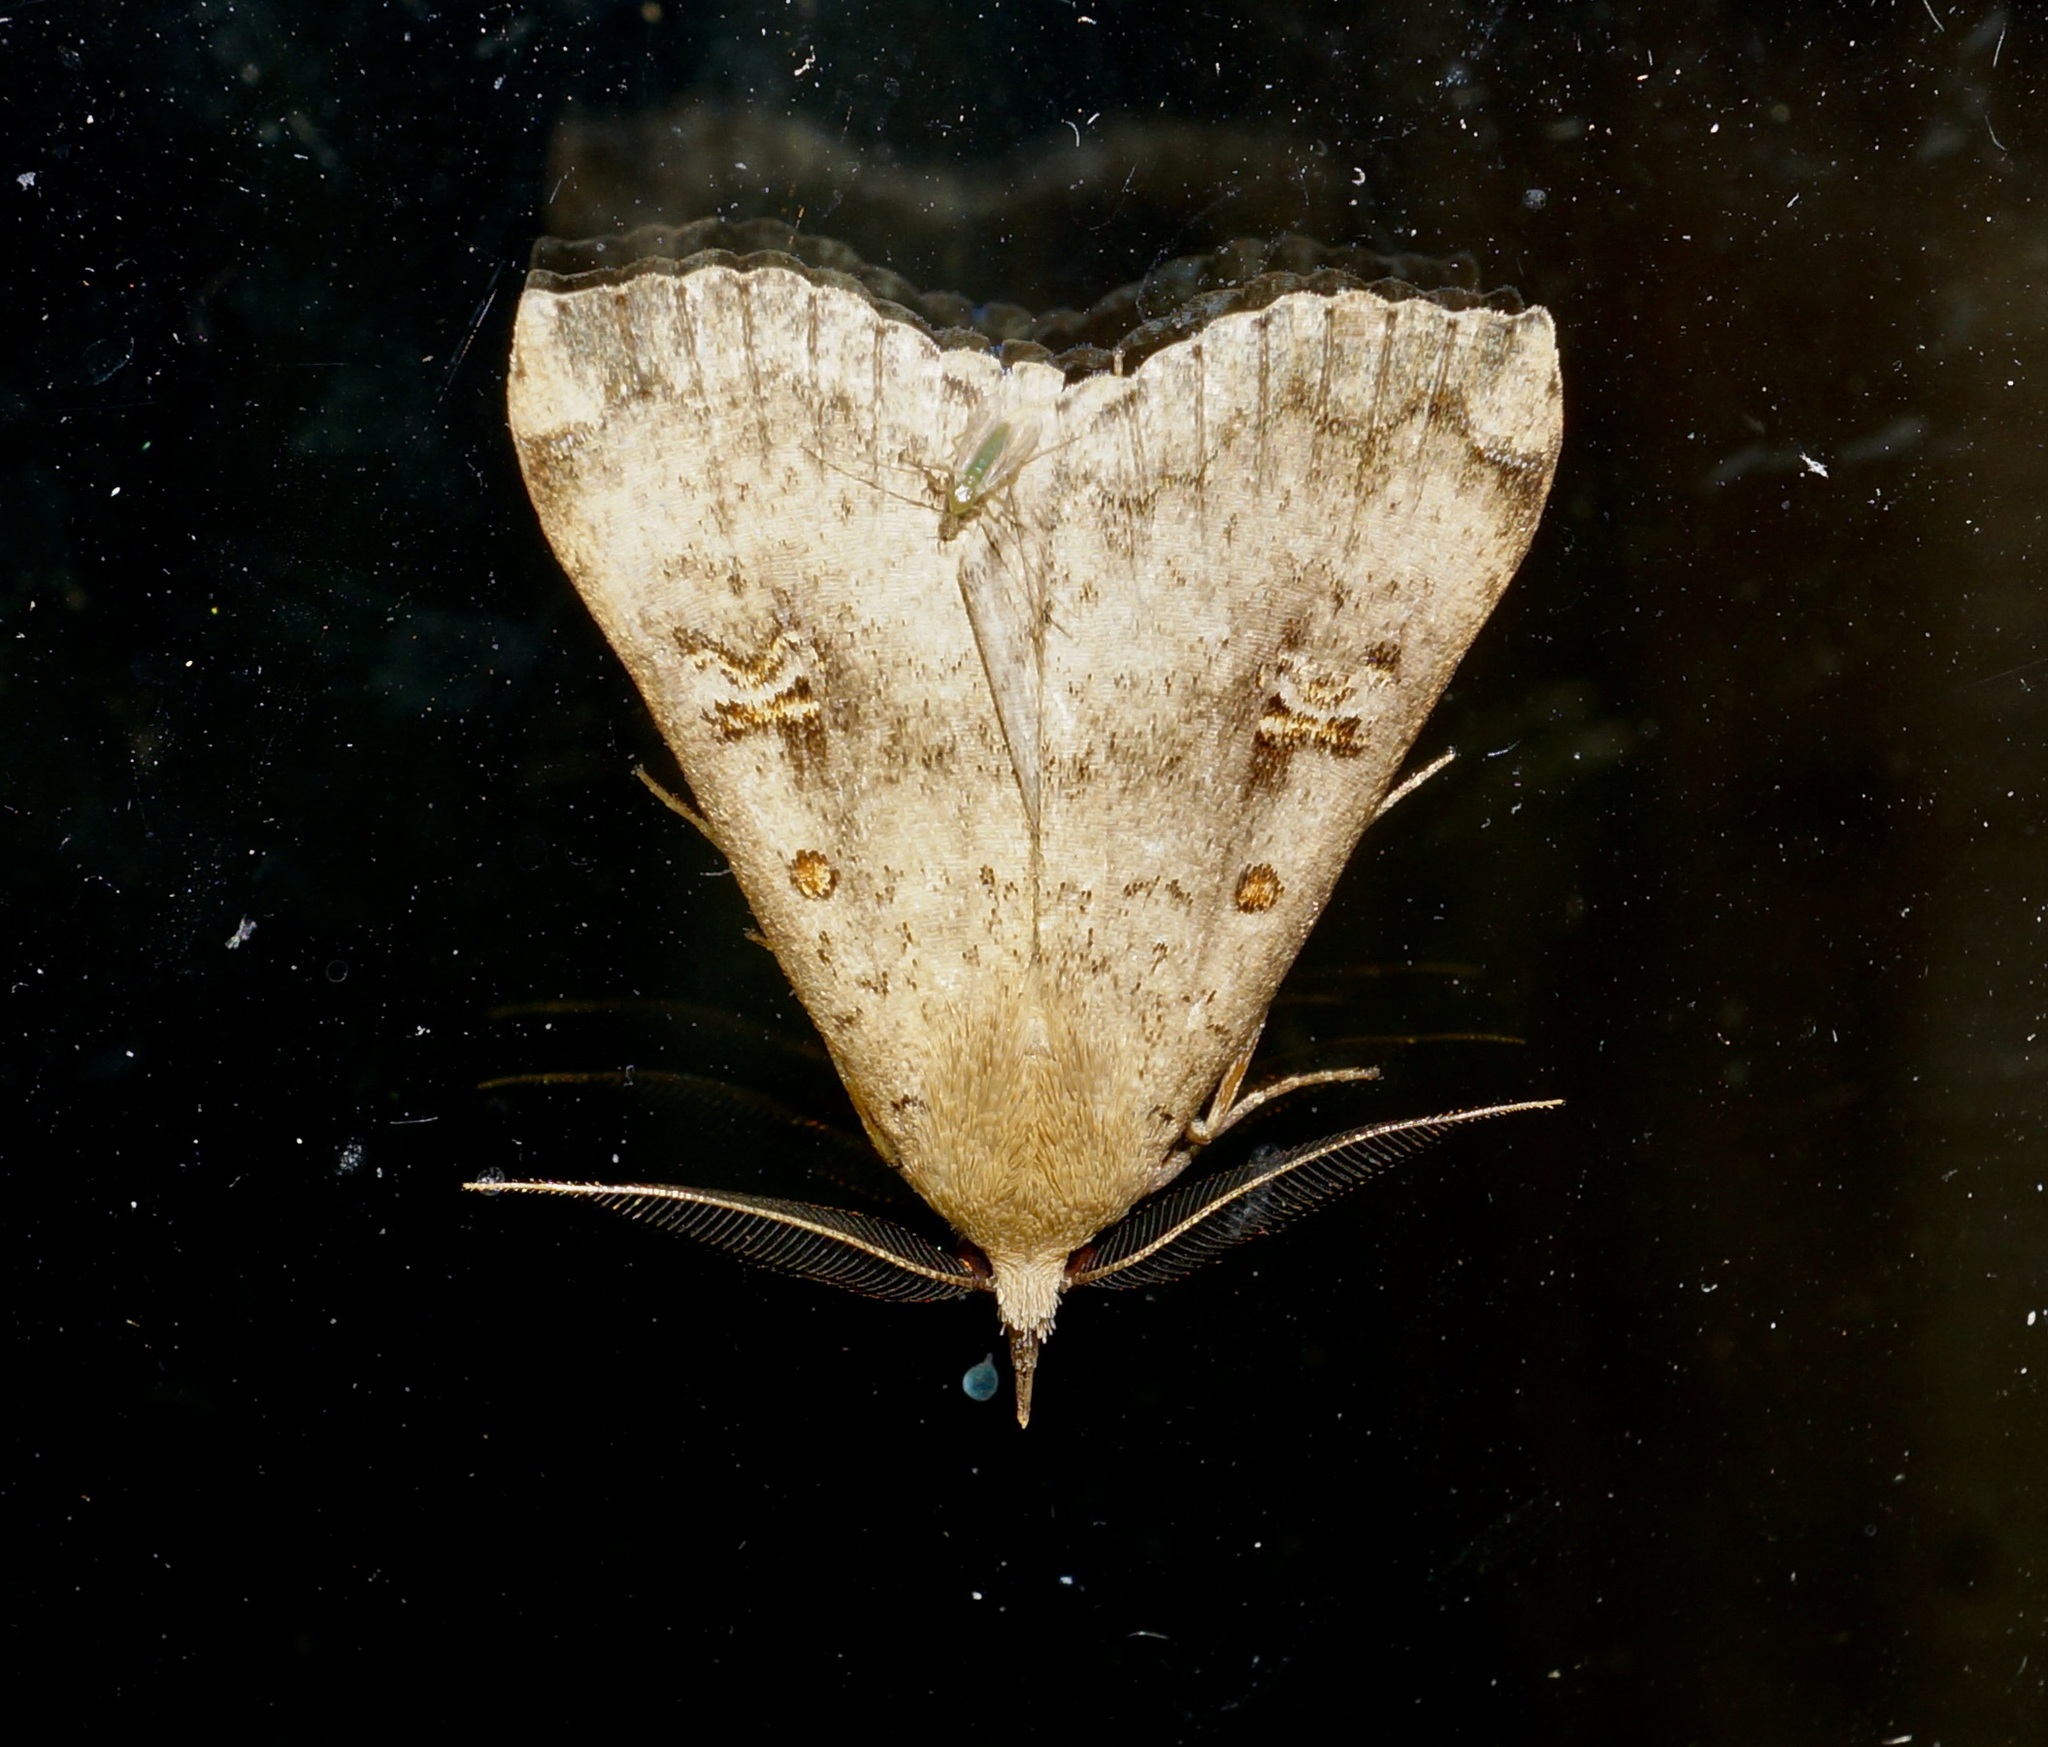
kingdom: Animalia
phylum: Arthropoda
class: Insecta
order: Lepidoptera
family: Erebidae
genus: Rhapsa
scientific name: Rhapsa scotosialis
